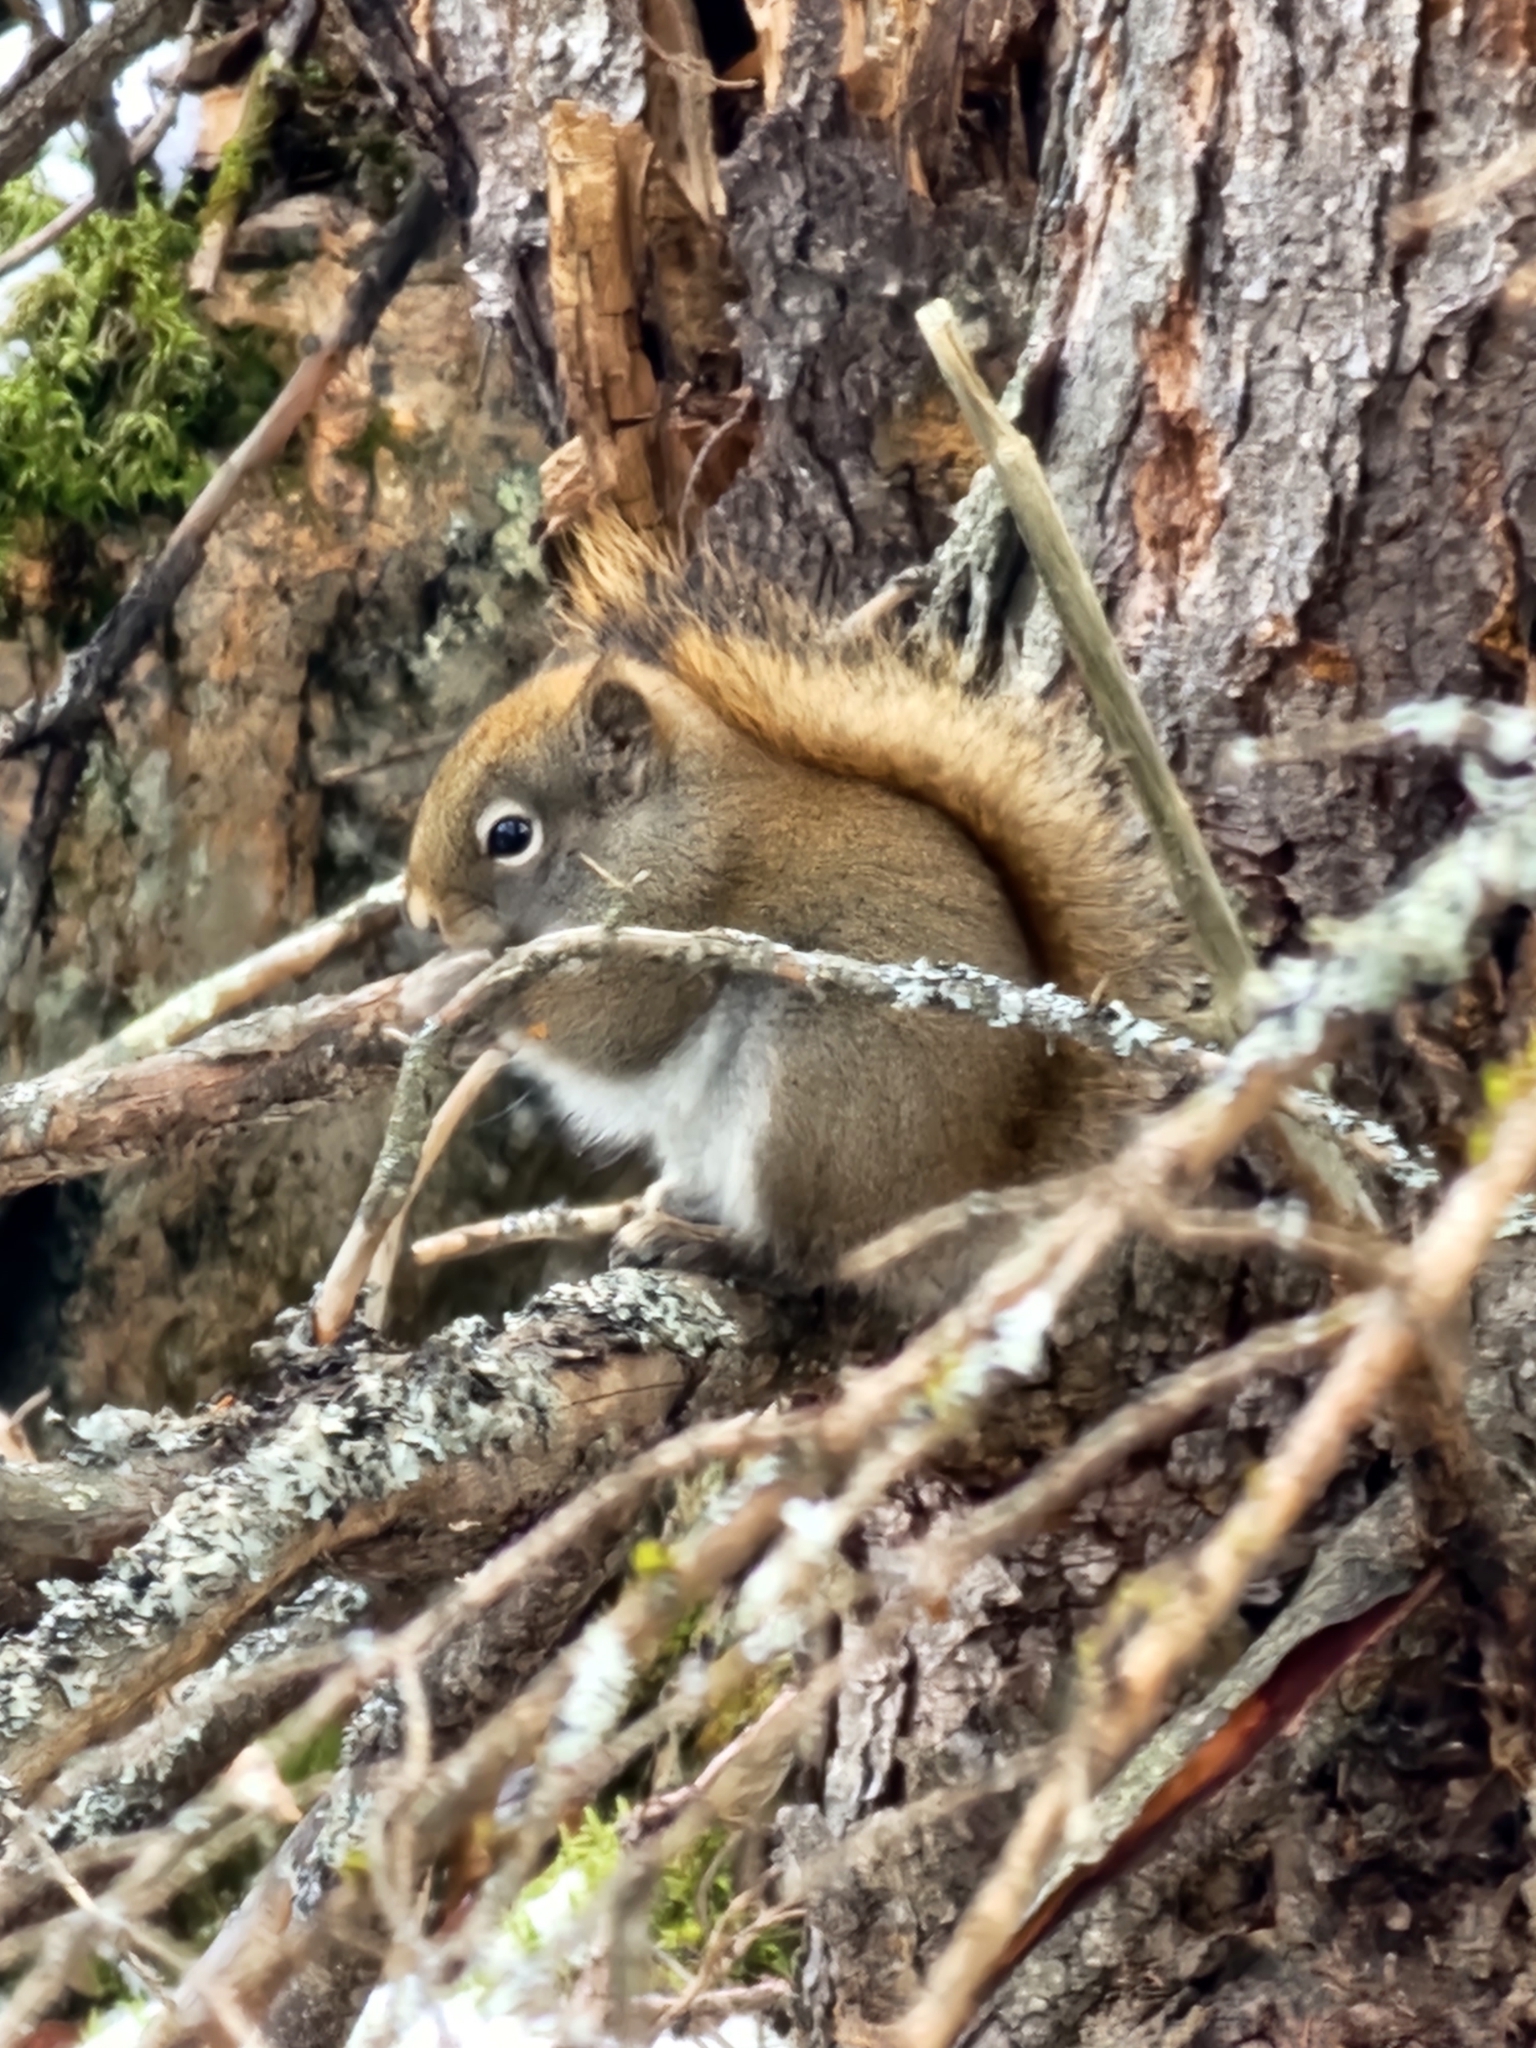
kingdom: Animalia
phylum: Chordata
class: Mammalia
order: Rodentia
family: Sciuridae
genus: Tamiasciurus
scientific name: Tamiasciurus hudsonicus
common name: Red squirrel
